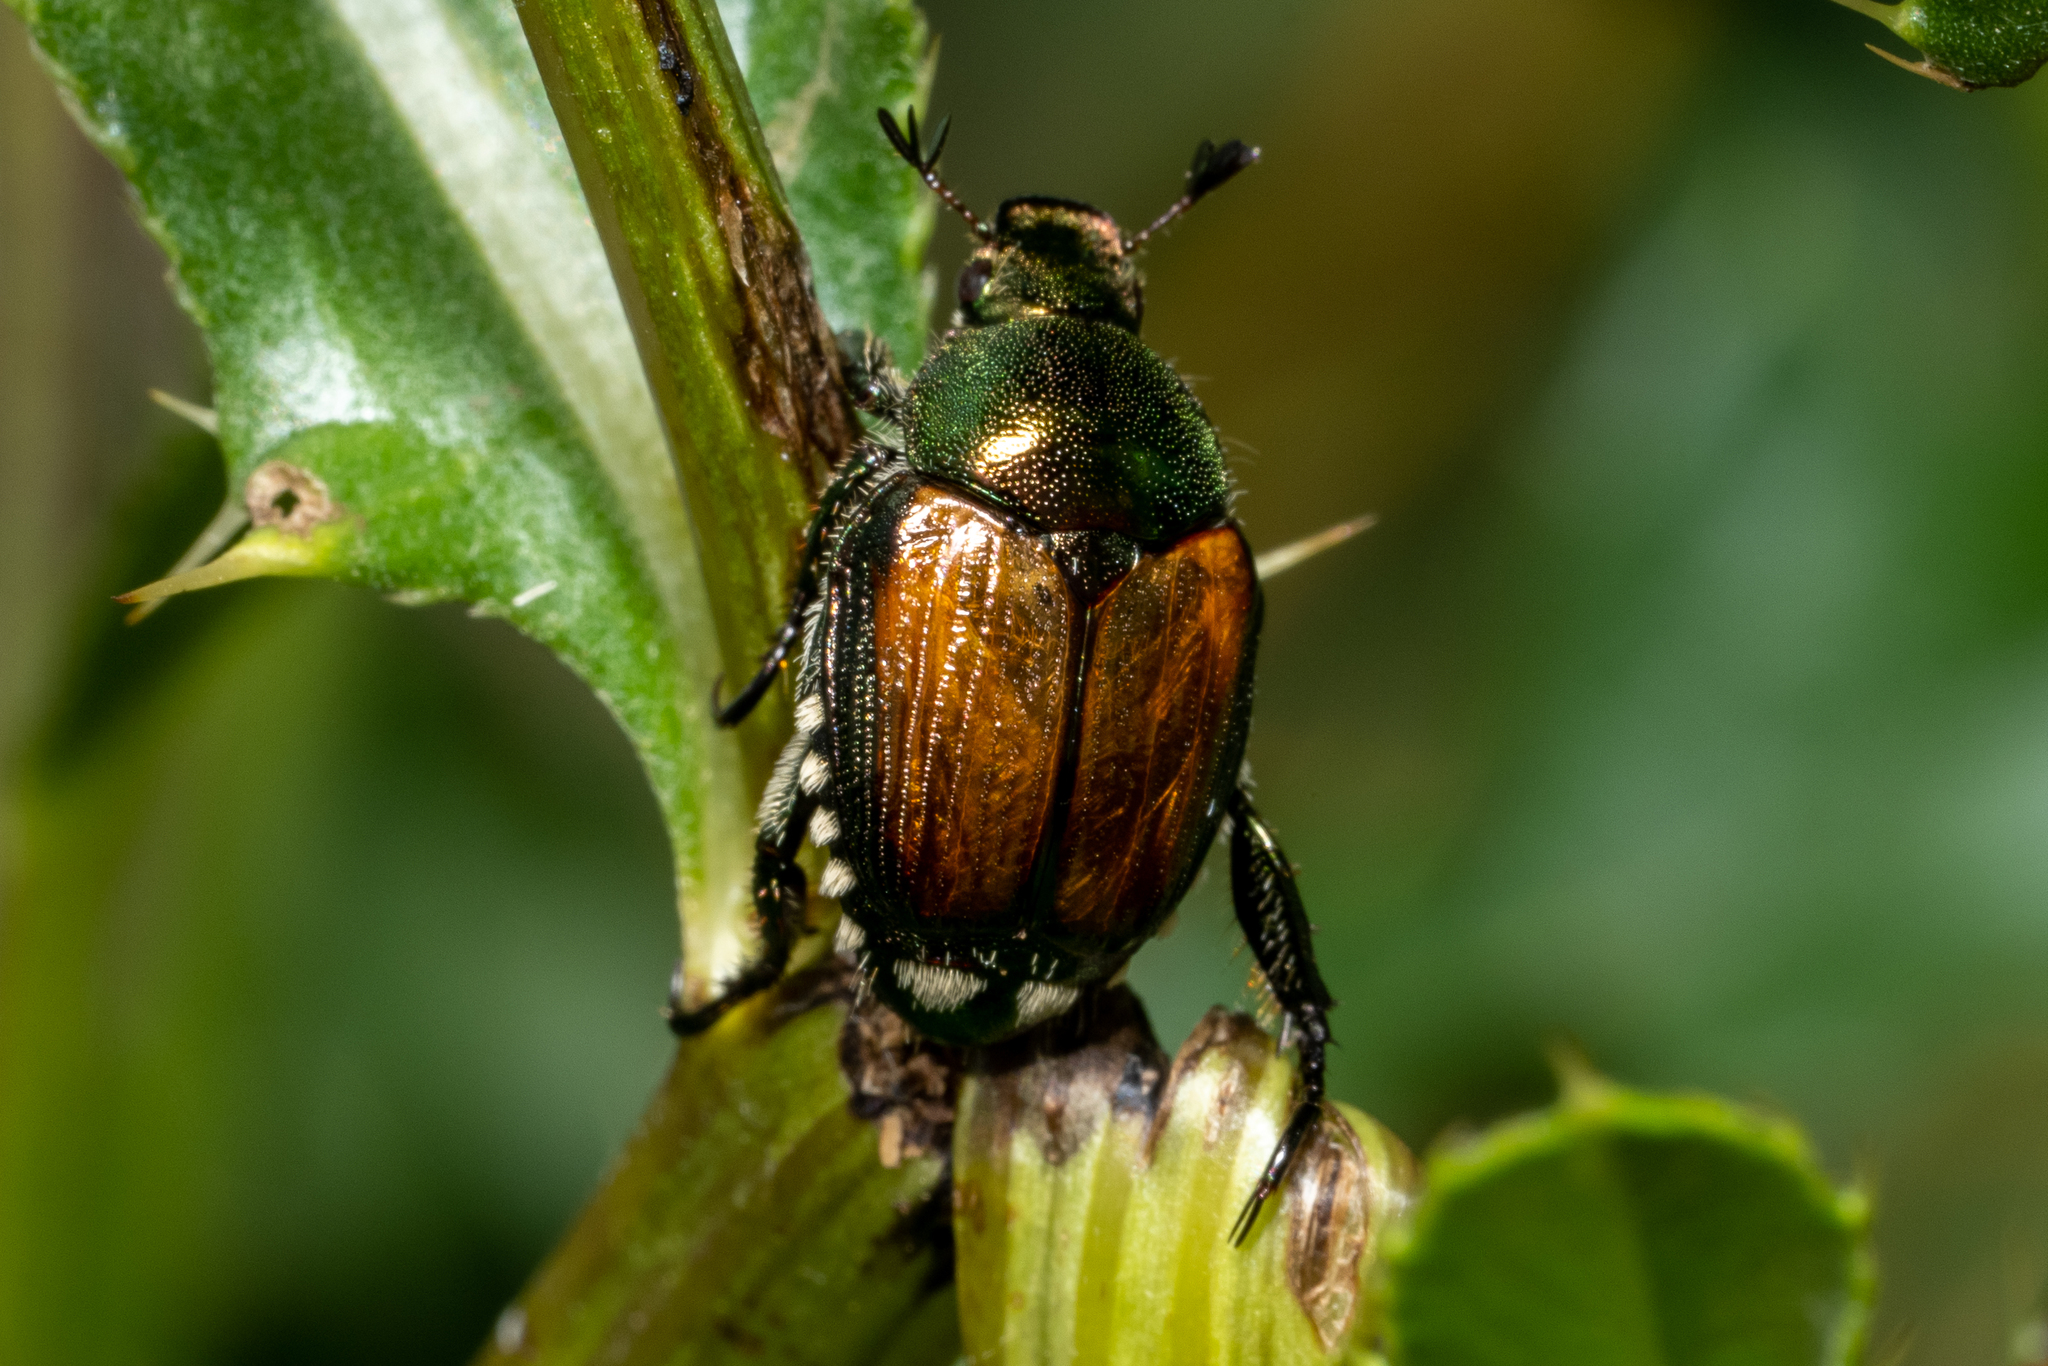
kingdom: Animalia
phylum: Arthropoda
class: Insecta
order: Coleoptera
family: Scarabaeidae
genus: Popillia
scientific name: Popillia japonica
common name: Japanese beetle
